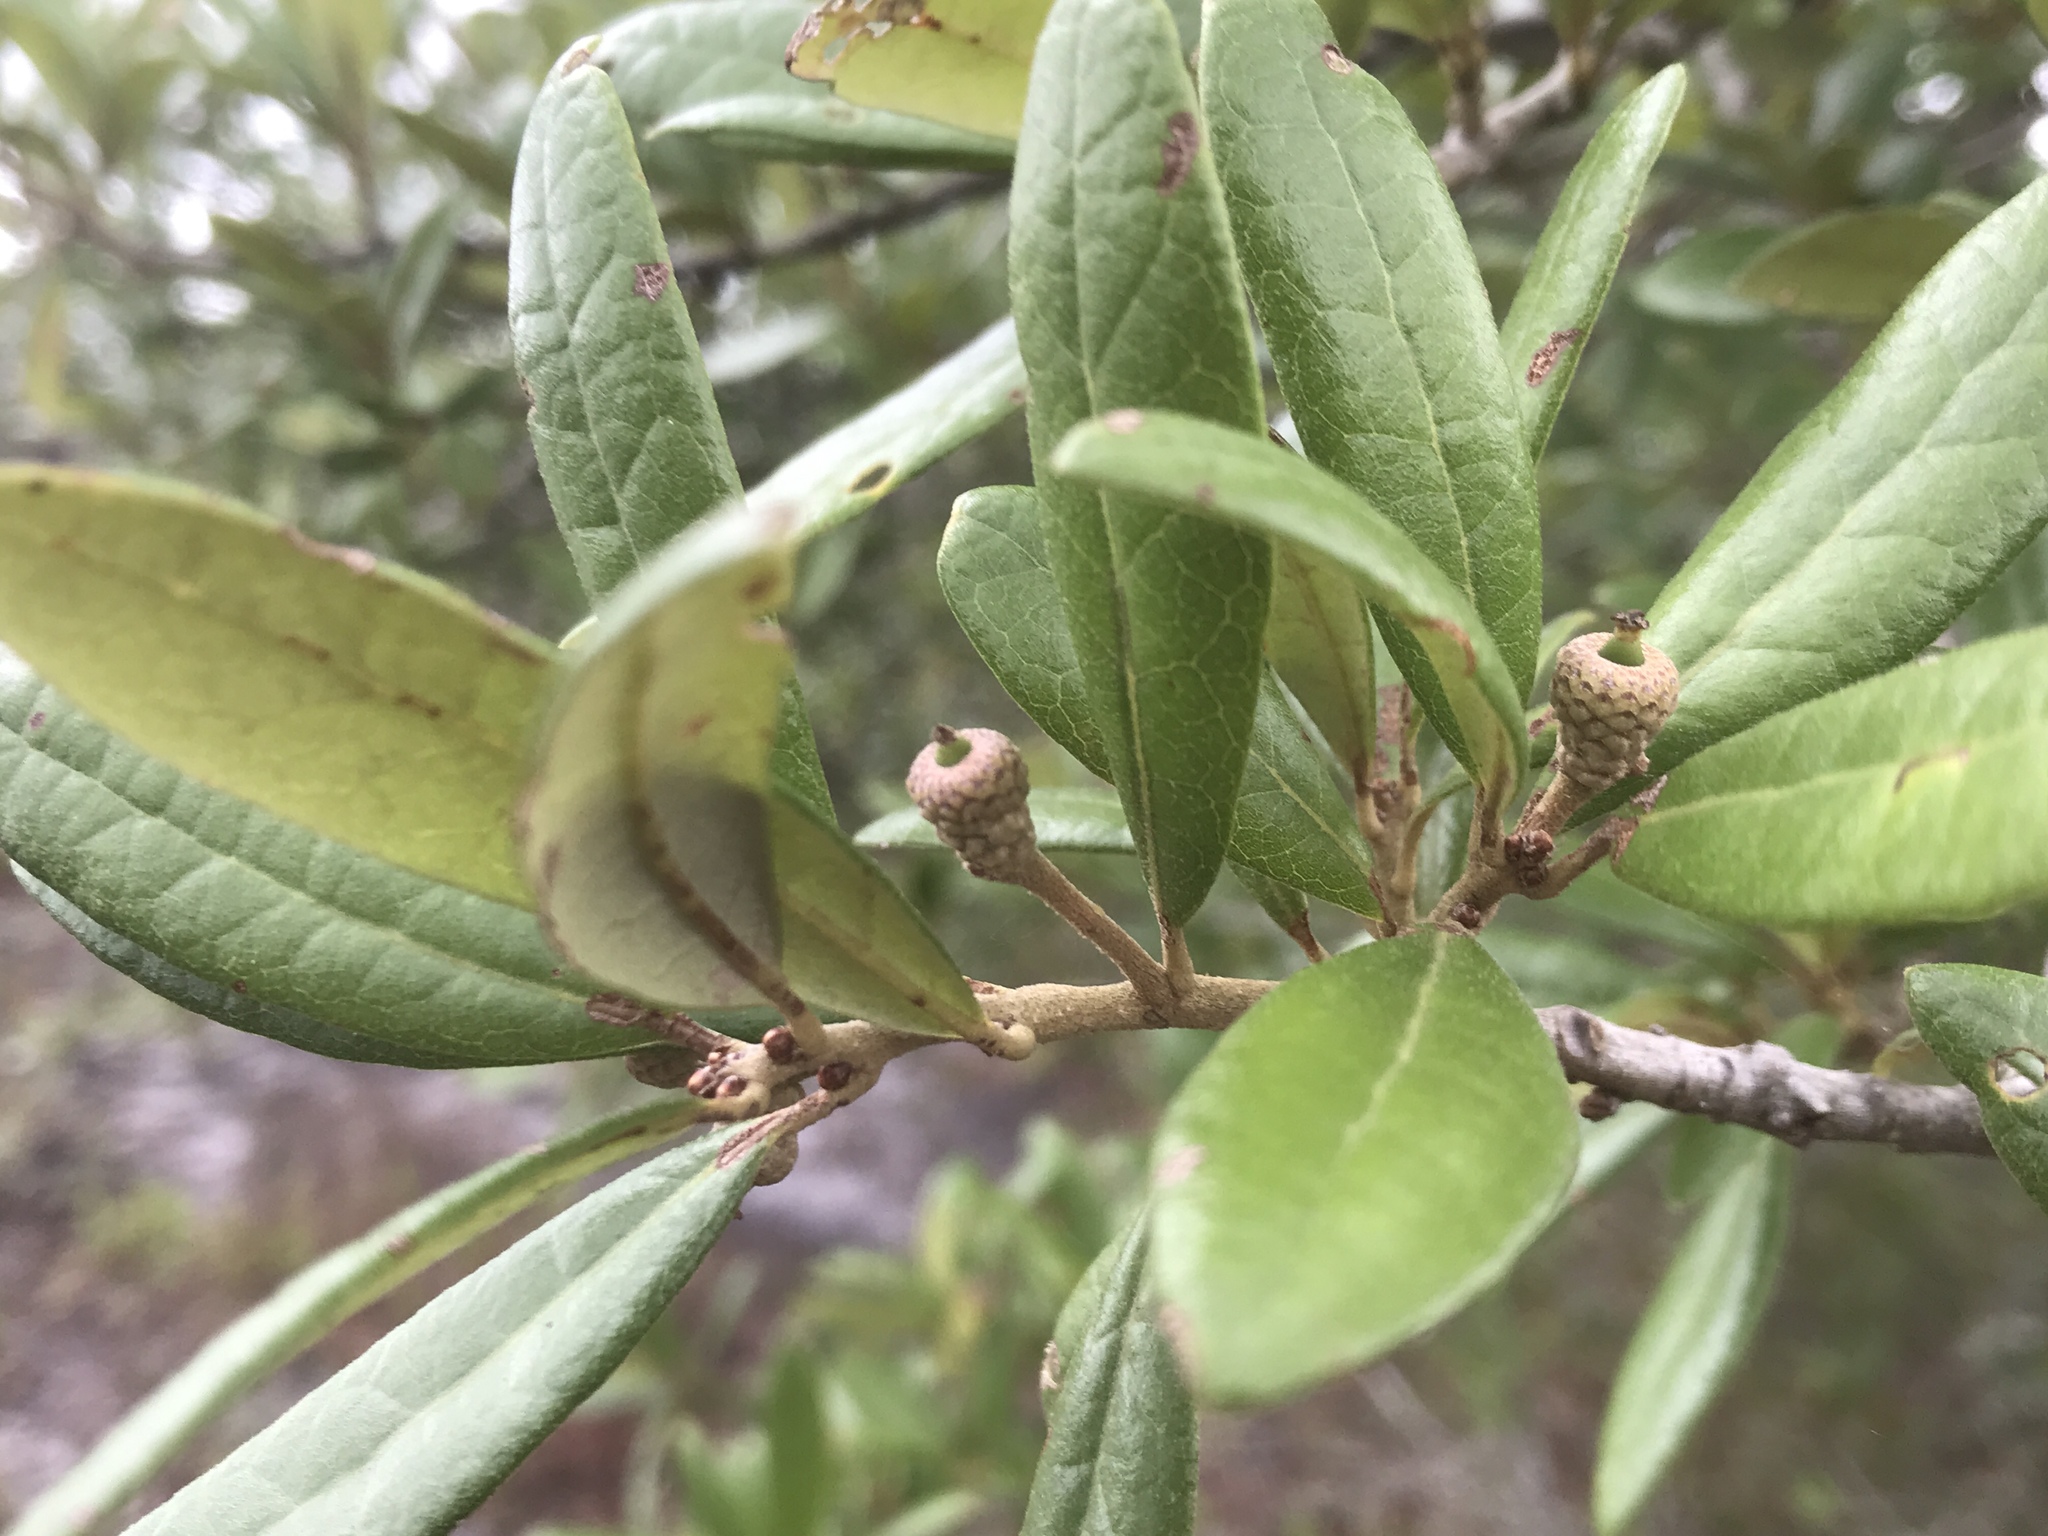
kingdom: Plantae
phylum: Tracheophyta
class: Magnoliopsida
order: Fagales
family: Fagaceae
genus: Quercus
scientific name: Quercus geminata
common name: Sand live oak
